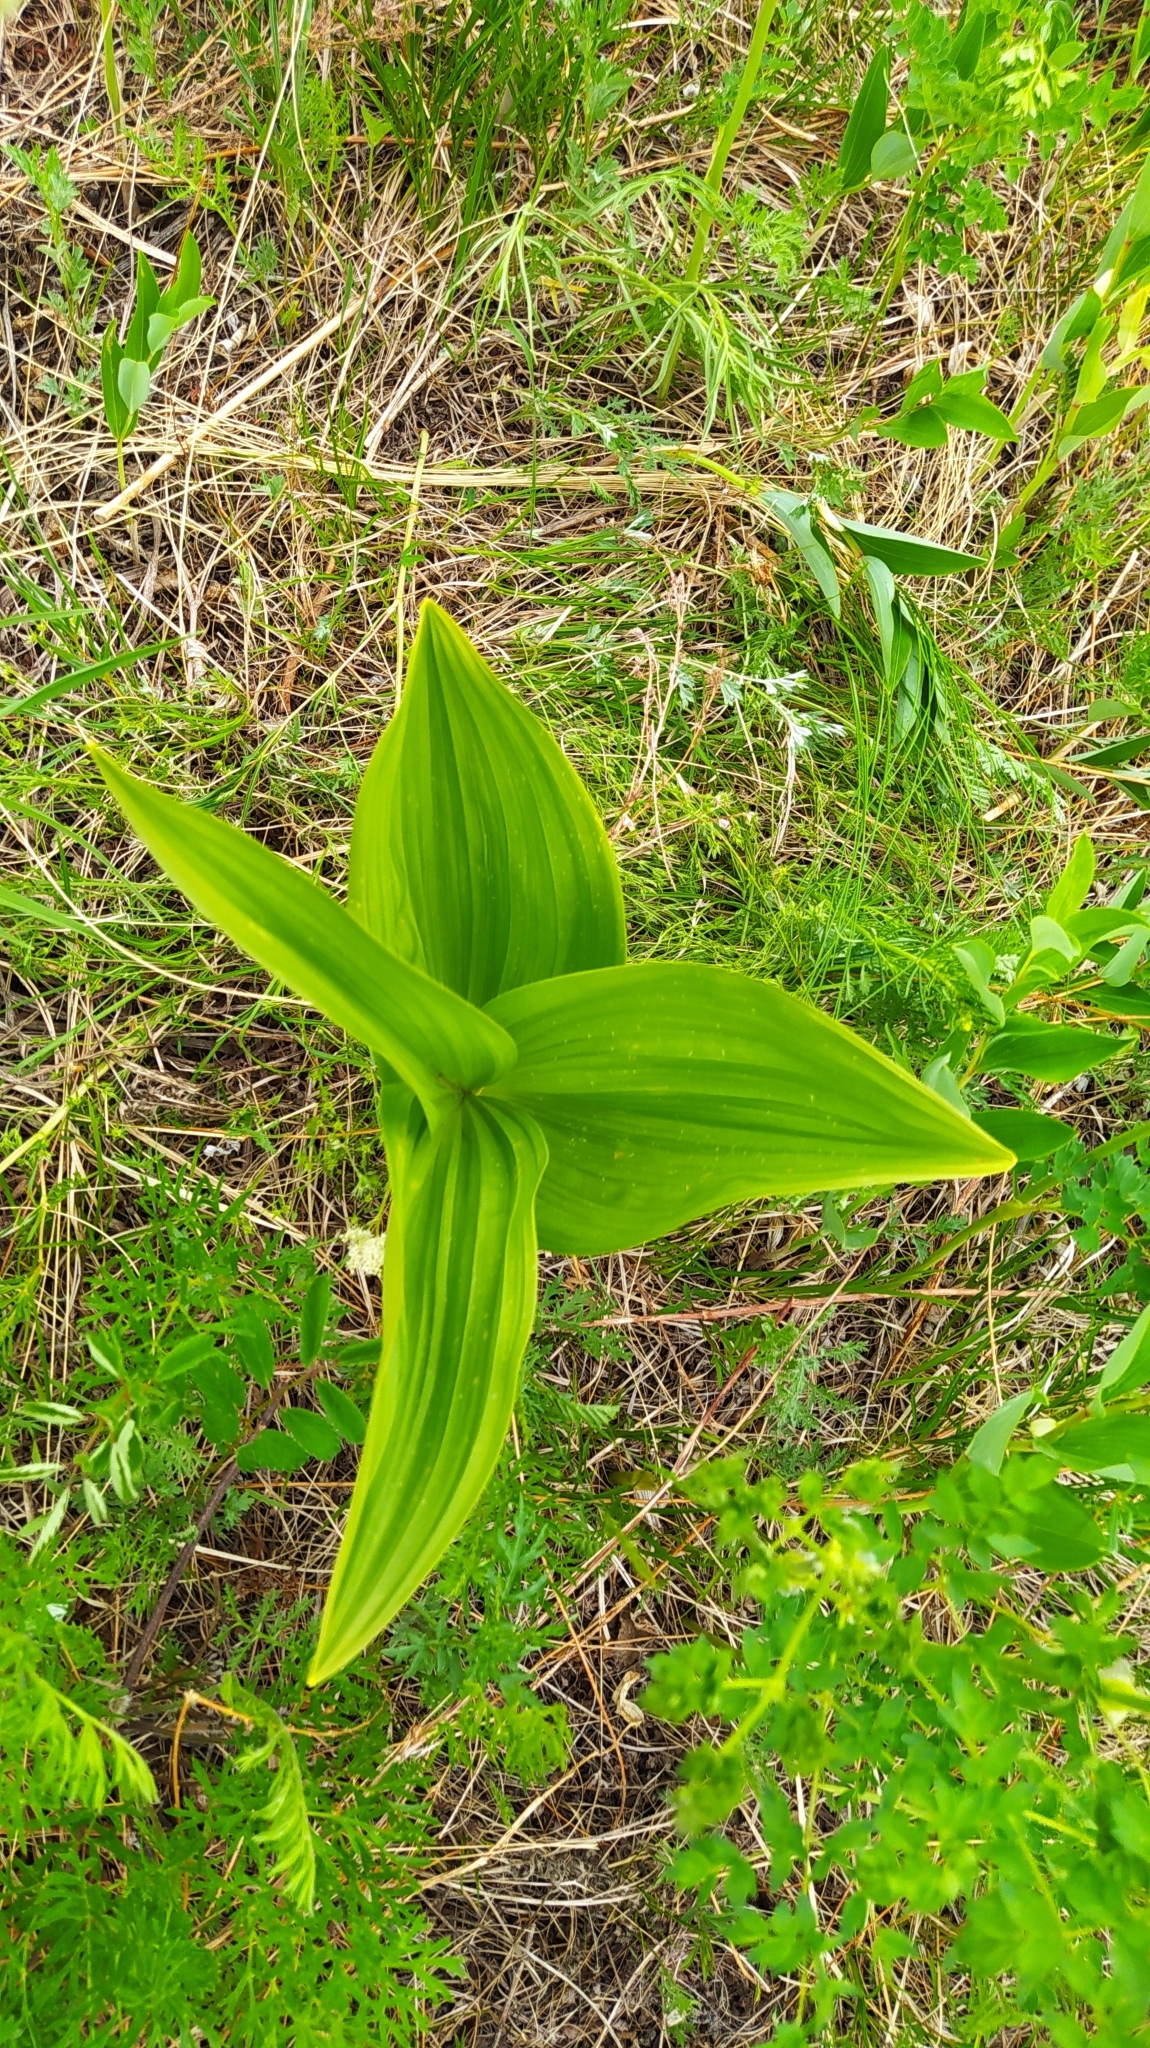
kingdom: Plantae
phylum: Tracheophyta
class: Liliopsida
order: Liliales
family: Melanthiaceae
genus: Veratrum
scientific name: Veratrum lobelianum
